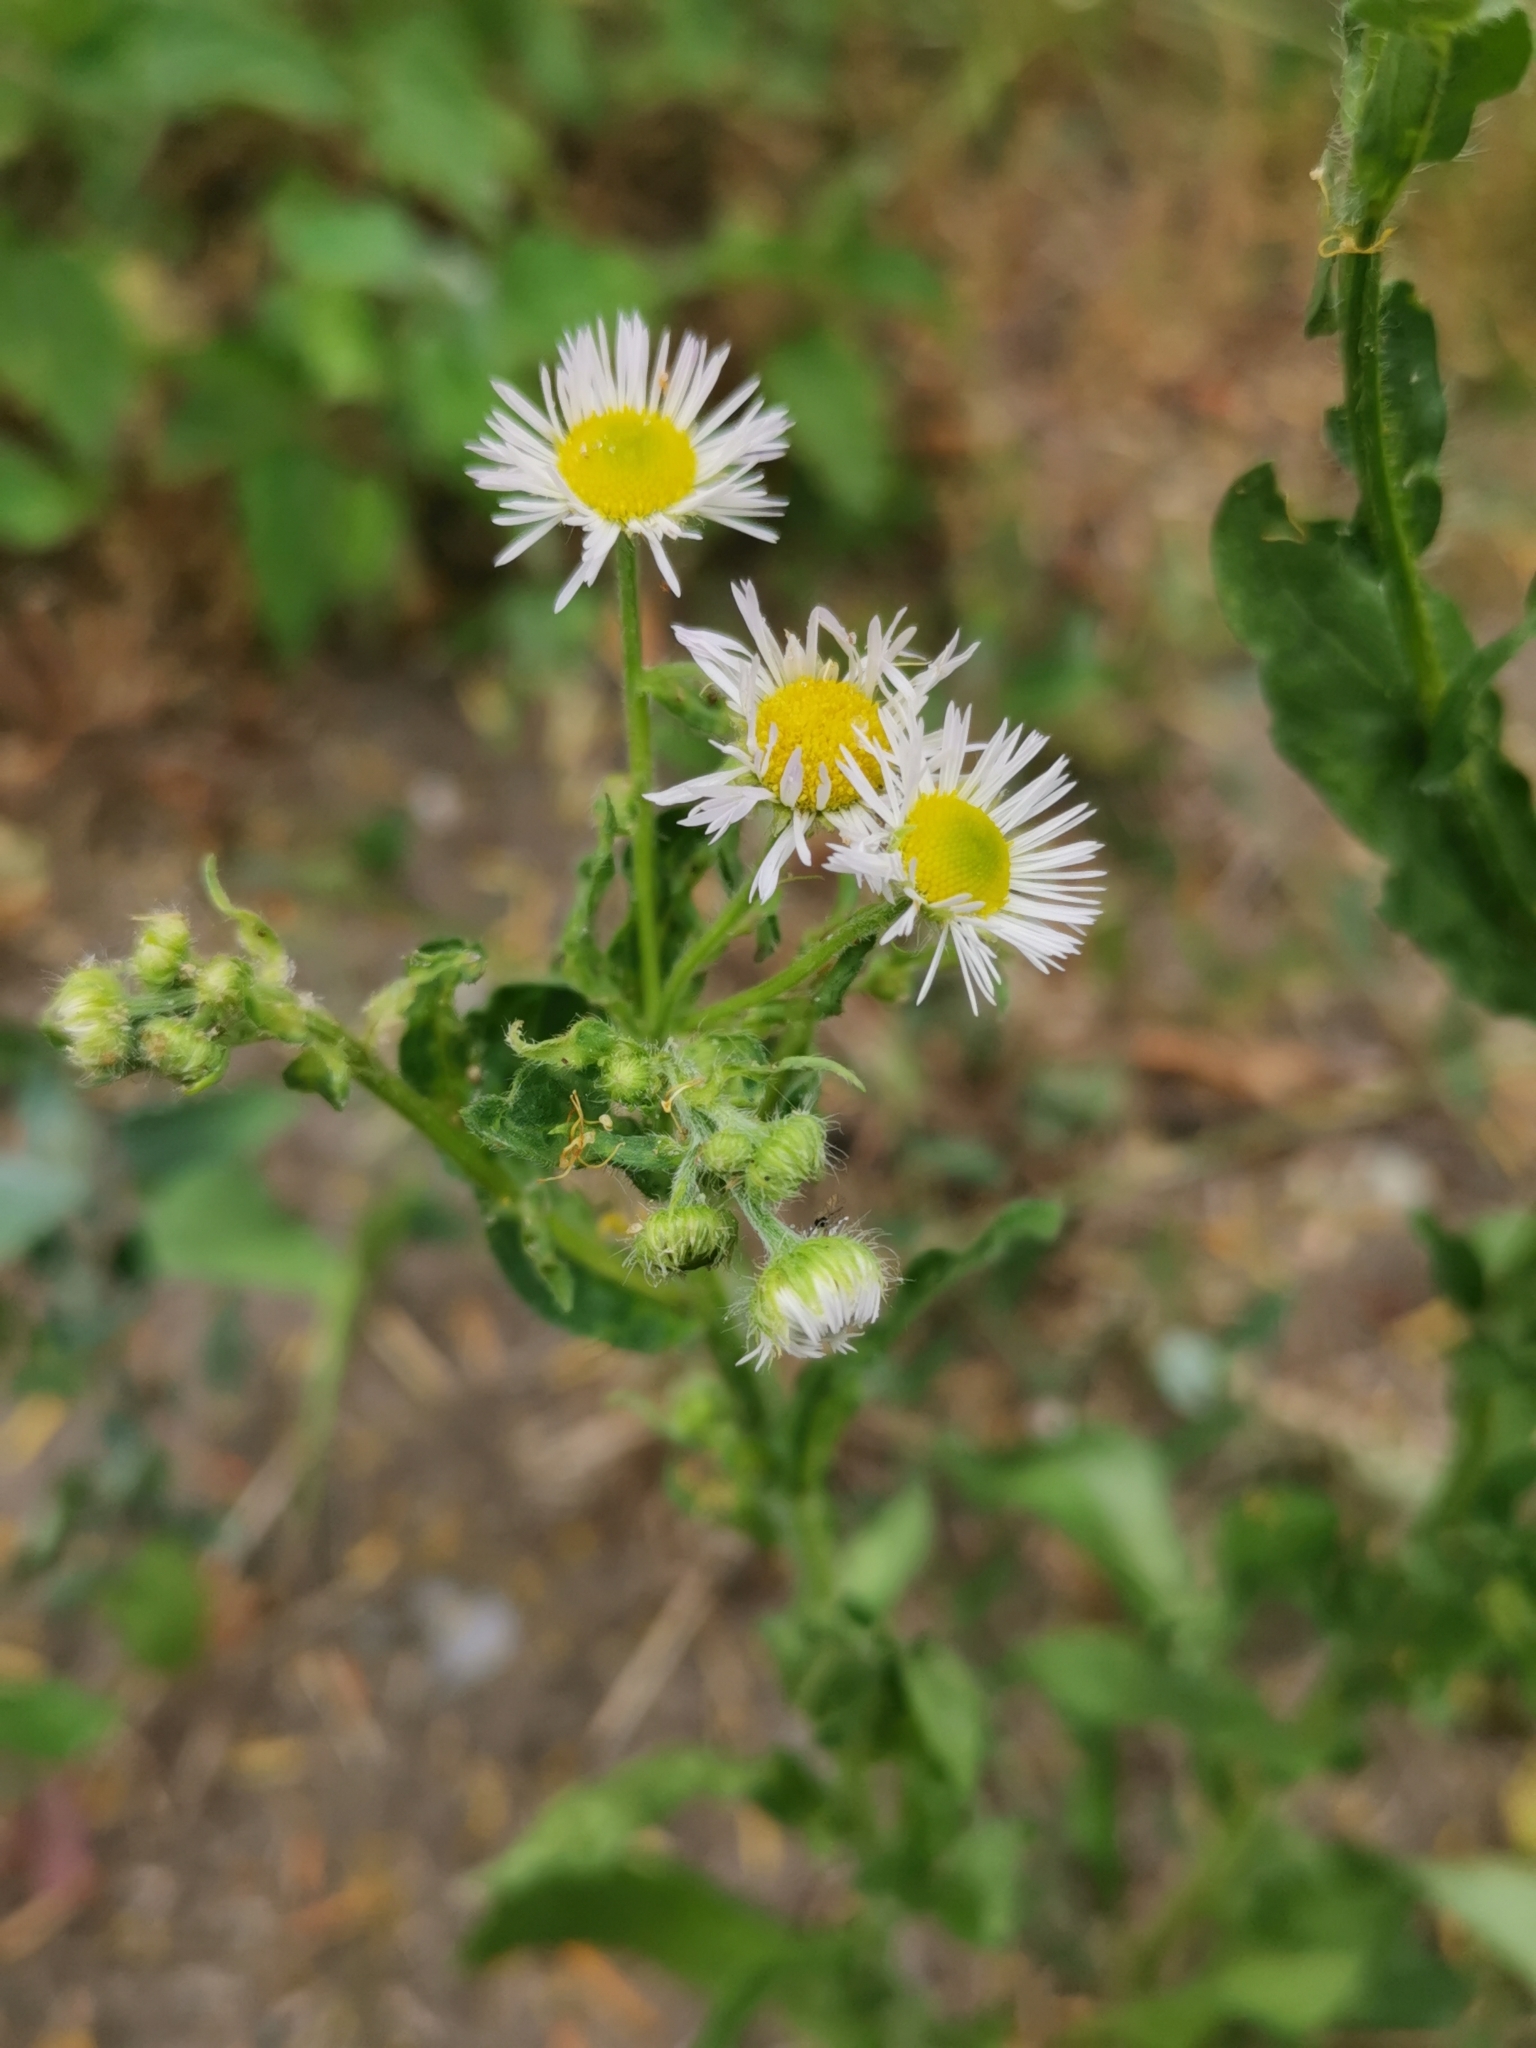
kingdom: Plantae
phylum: Tracheophyta
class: Magnoliopsida
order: Asterales
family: Asteraceae
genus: Erigeron
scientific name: Erigeron annuus
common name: Tall fleabane
